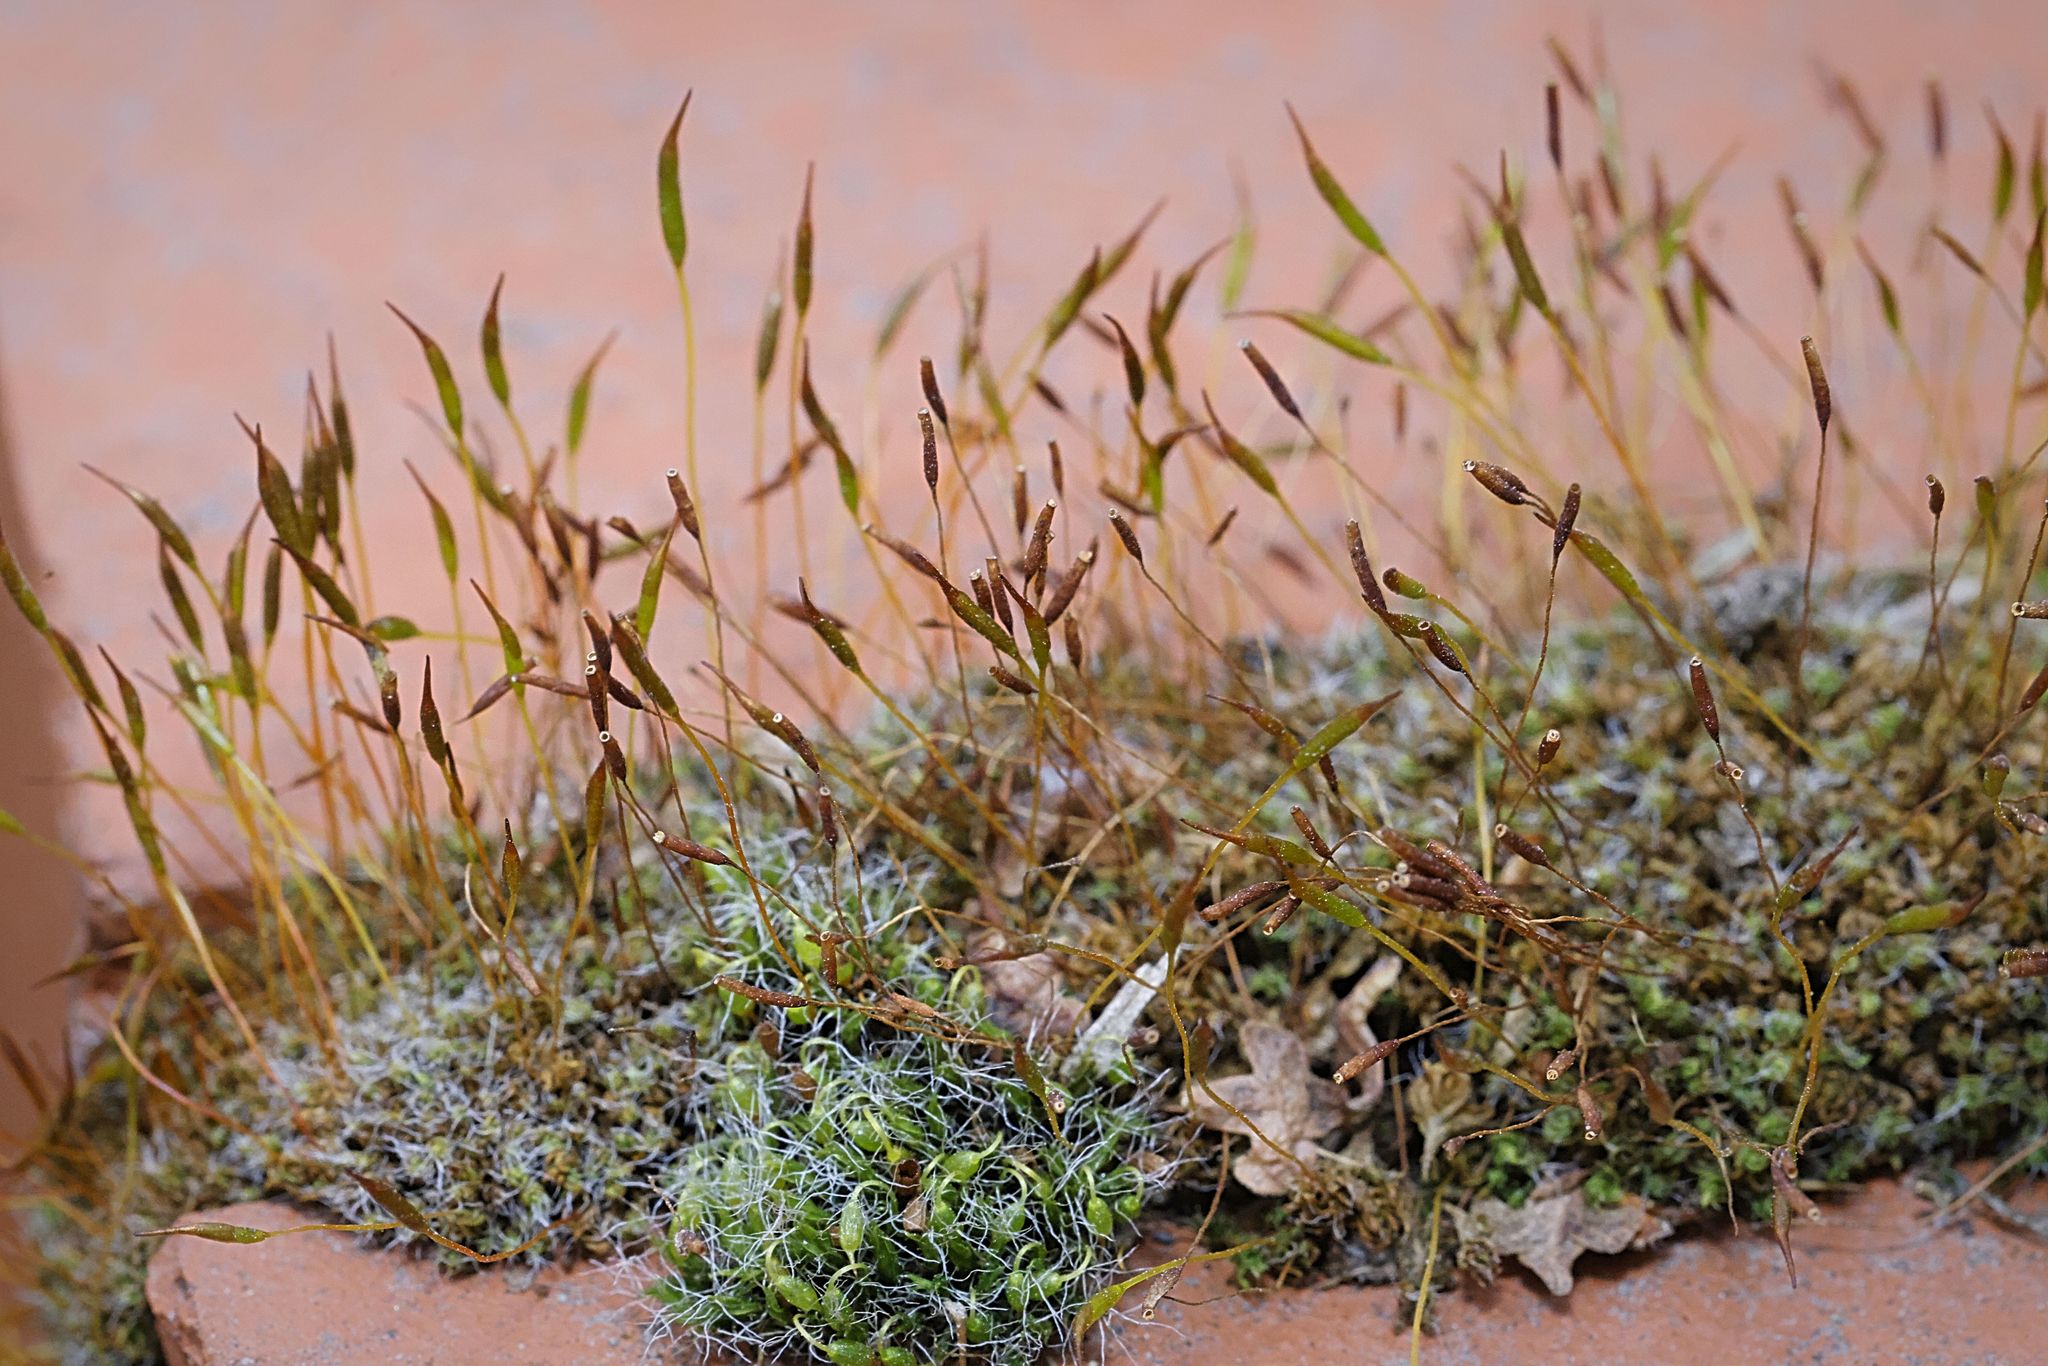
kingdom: Plantae
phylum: Bryophyta
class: Bryopsida
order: Pottiales
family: Pottiaceae
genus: Tortula
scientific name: Tortula muralis
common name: Wall screw-moss
